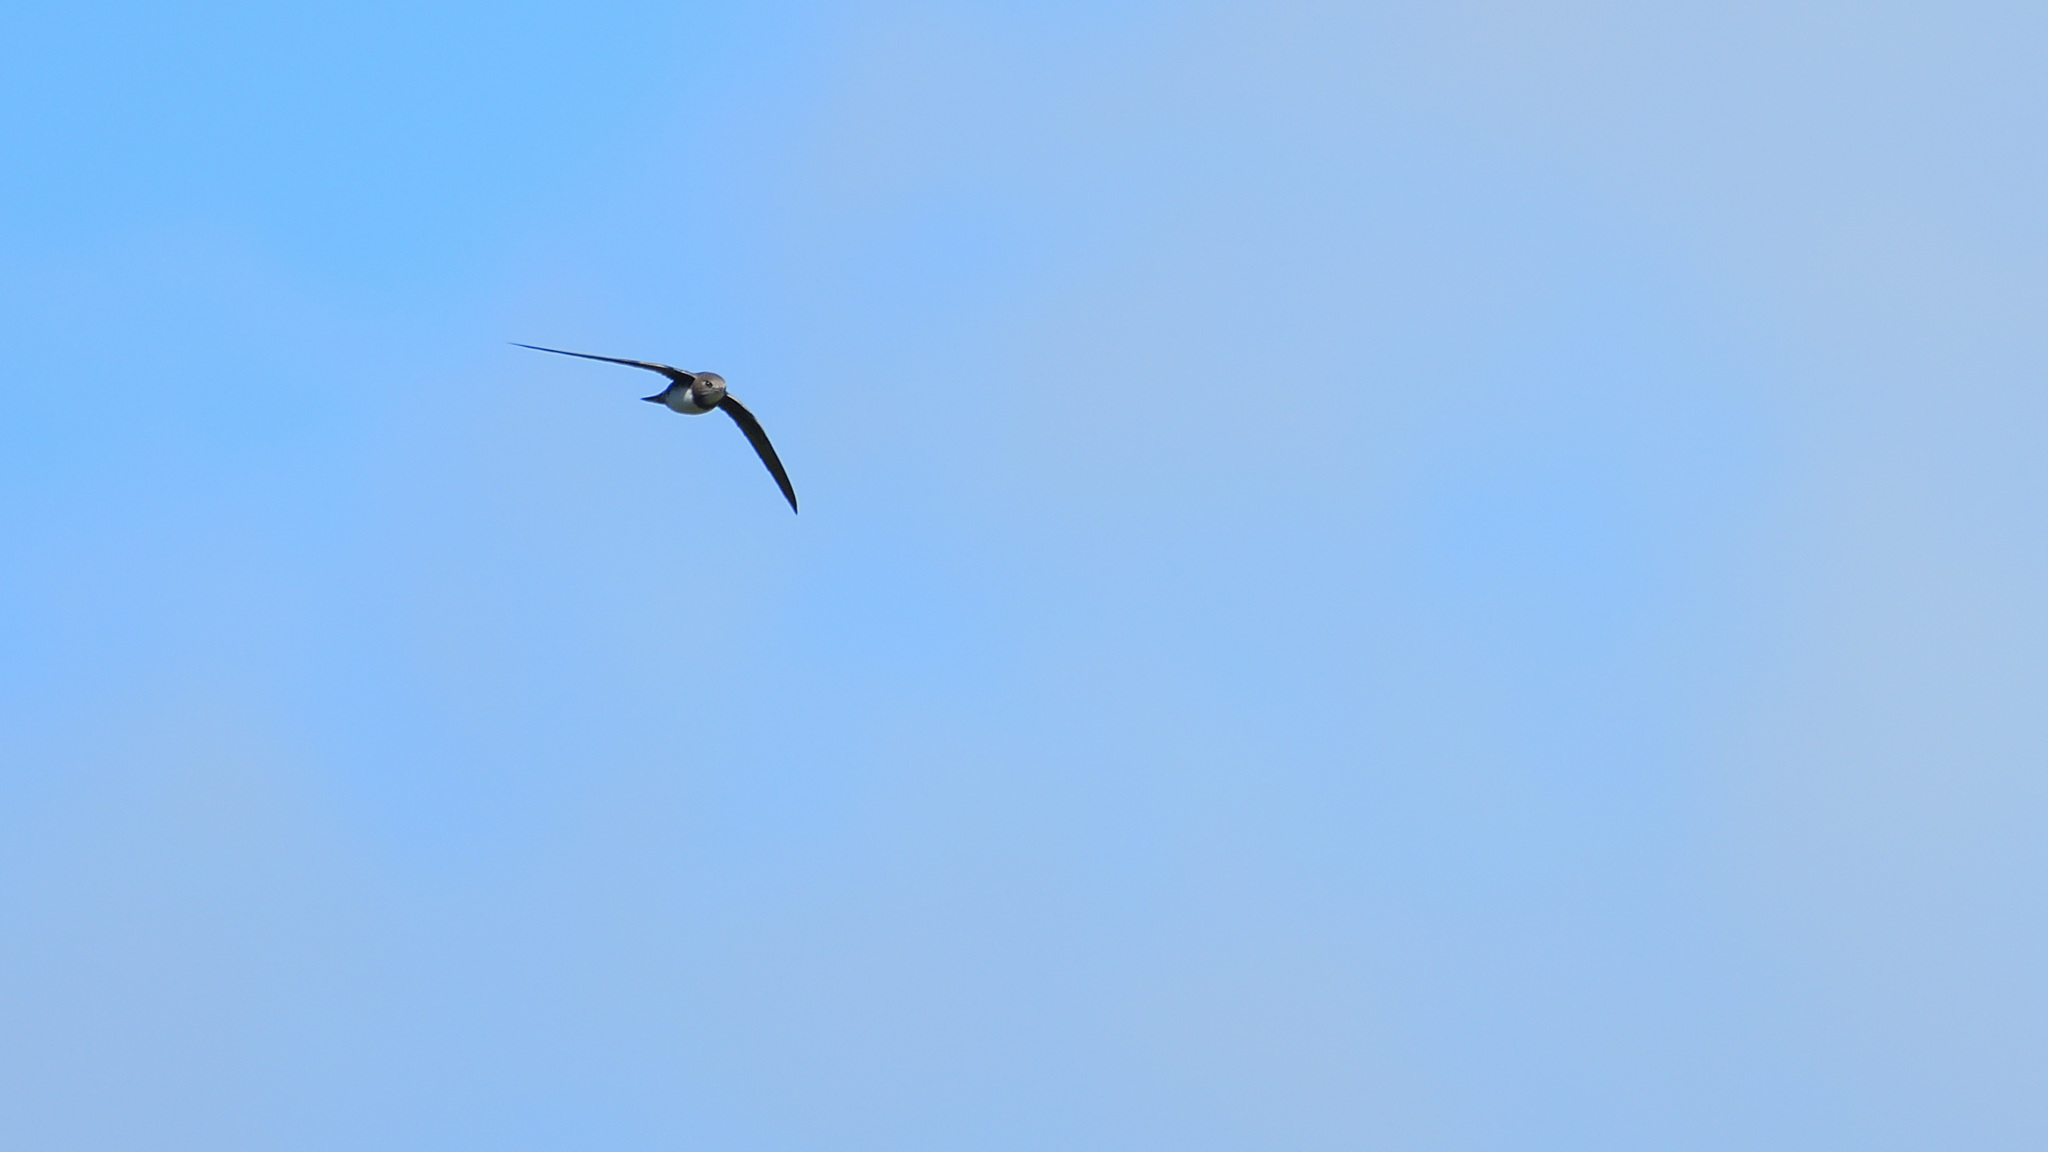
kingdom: Animalia
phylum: Chordata
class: Aves
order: Apodiformes
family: Apodidae
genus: Tachymarptis
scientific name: Tachymarptis melba
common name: Alpine swift
